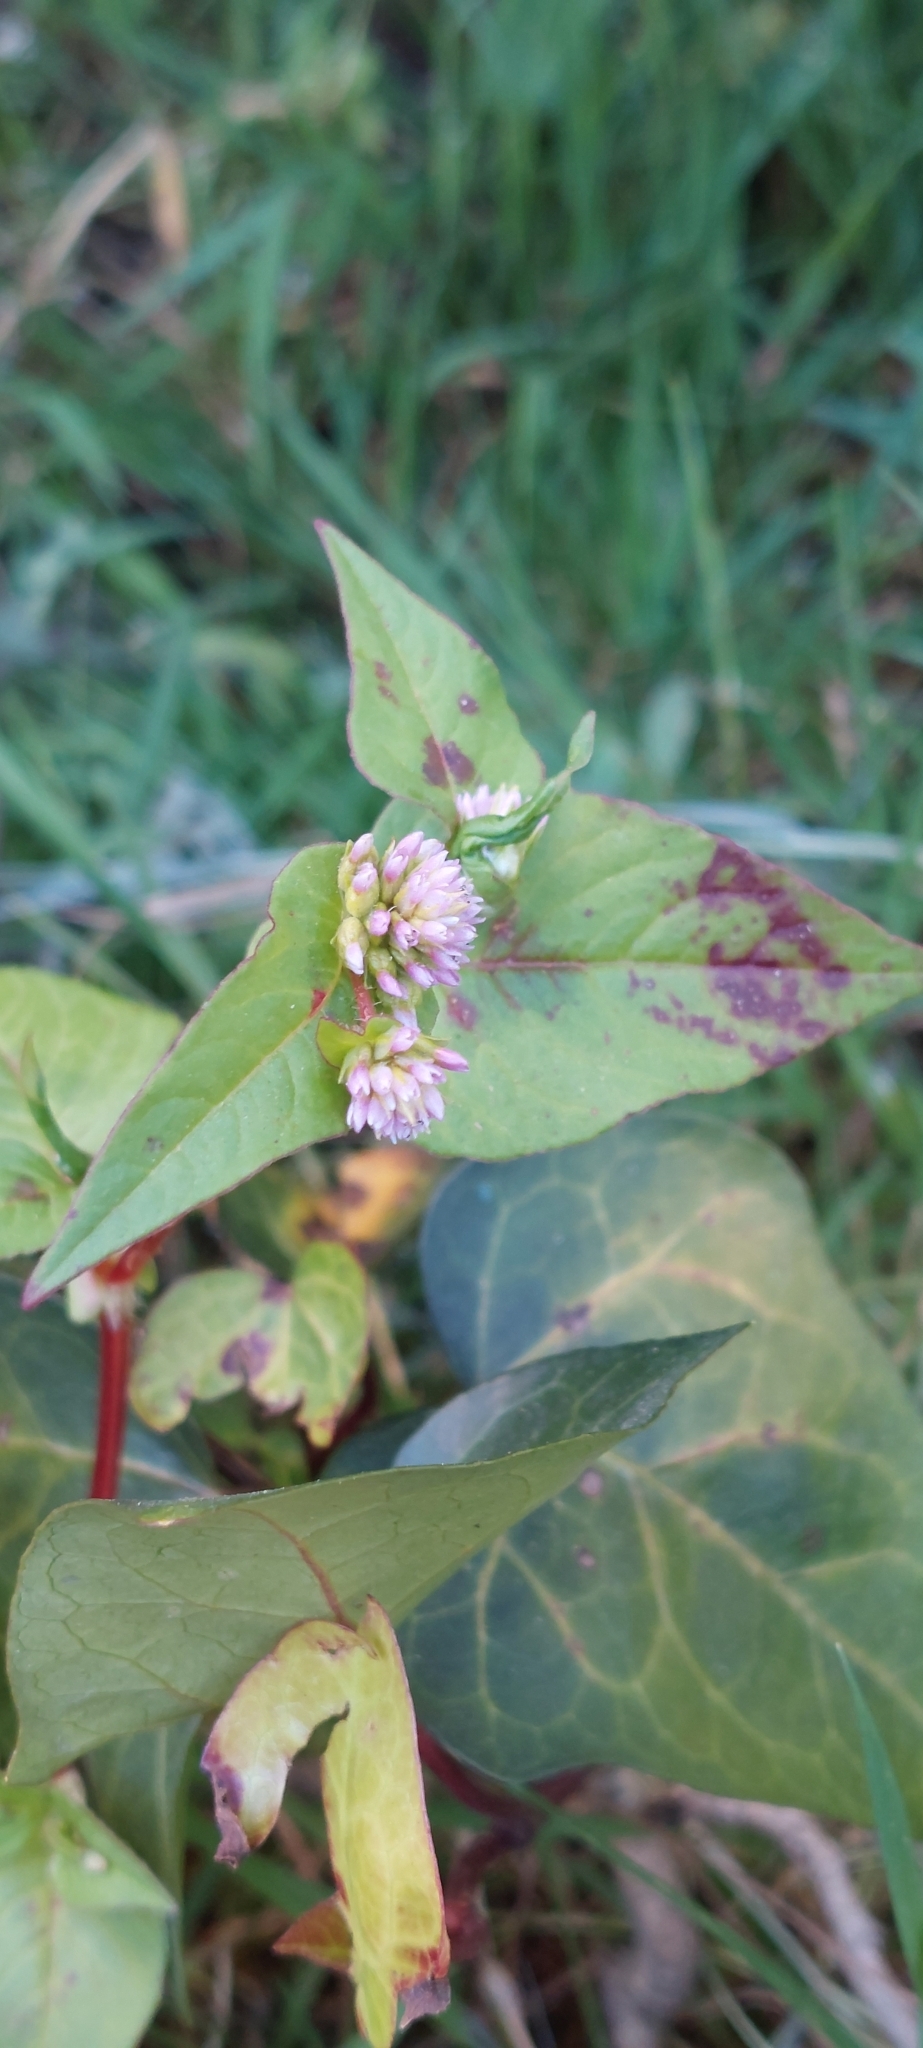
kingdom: Plantae
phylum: Tracheophyta
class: Magnoliopsida
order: Caryophyllales
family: Polygonaceae
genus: Persicaria
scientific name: Persicaria nepalensis
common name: Nepal persicaria
